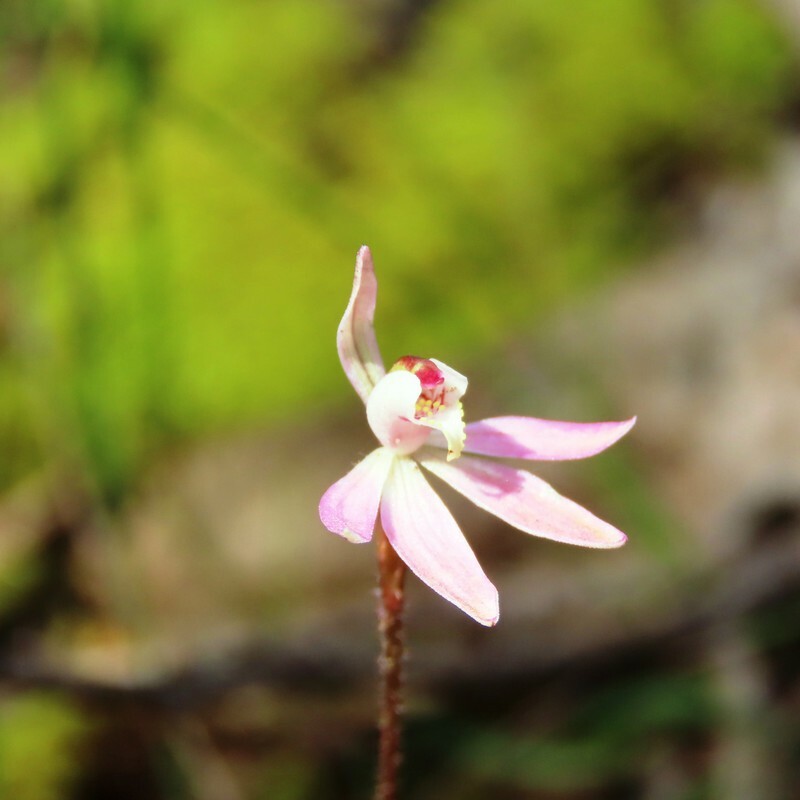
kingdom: Plantae
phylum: Tracheophyta
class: Liliopsida
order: Asparagales
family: Orchidaceae
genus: Caladenia
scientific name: Caladenia fuscata
